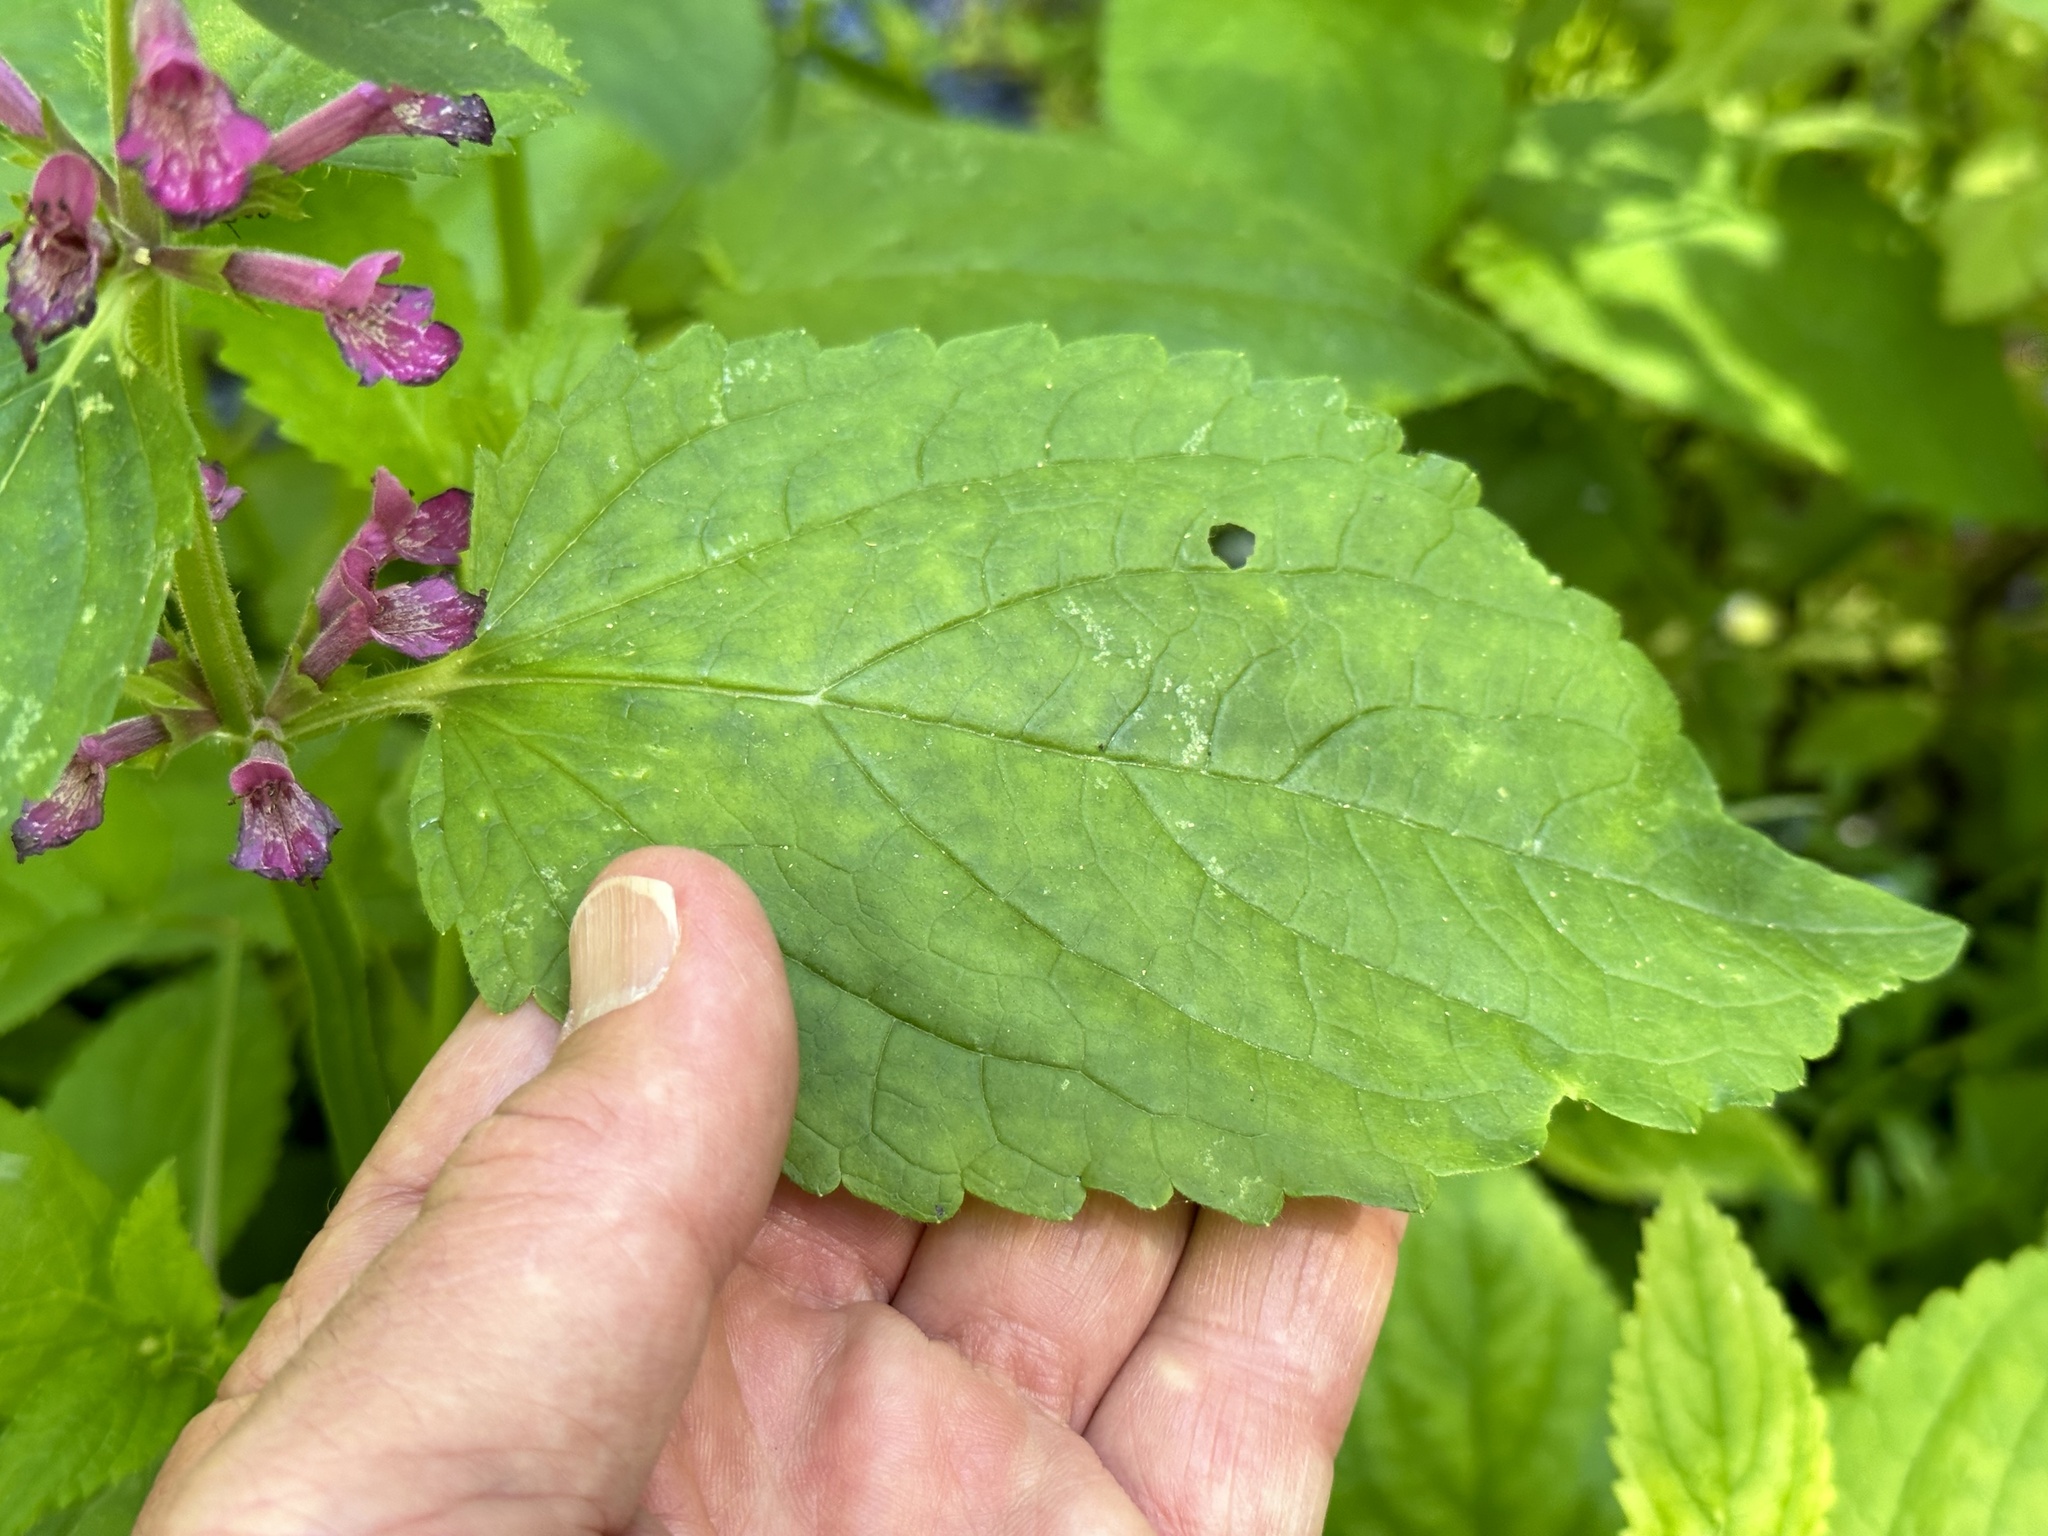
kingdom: Plantae
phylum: Tracheophyta
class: Magnoliopsida
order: Lamiales
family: Lamiaceae
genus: Stachys
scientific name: Stachys chamissonis
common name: Coastal hedge-nettle
